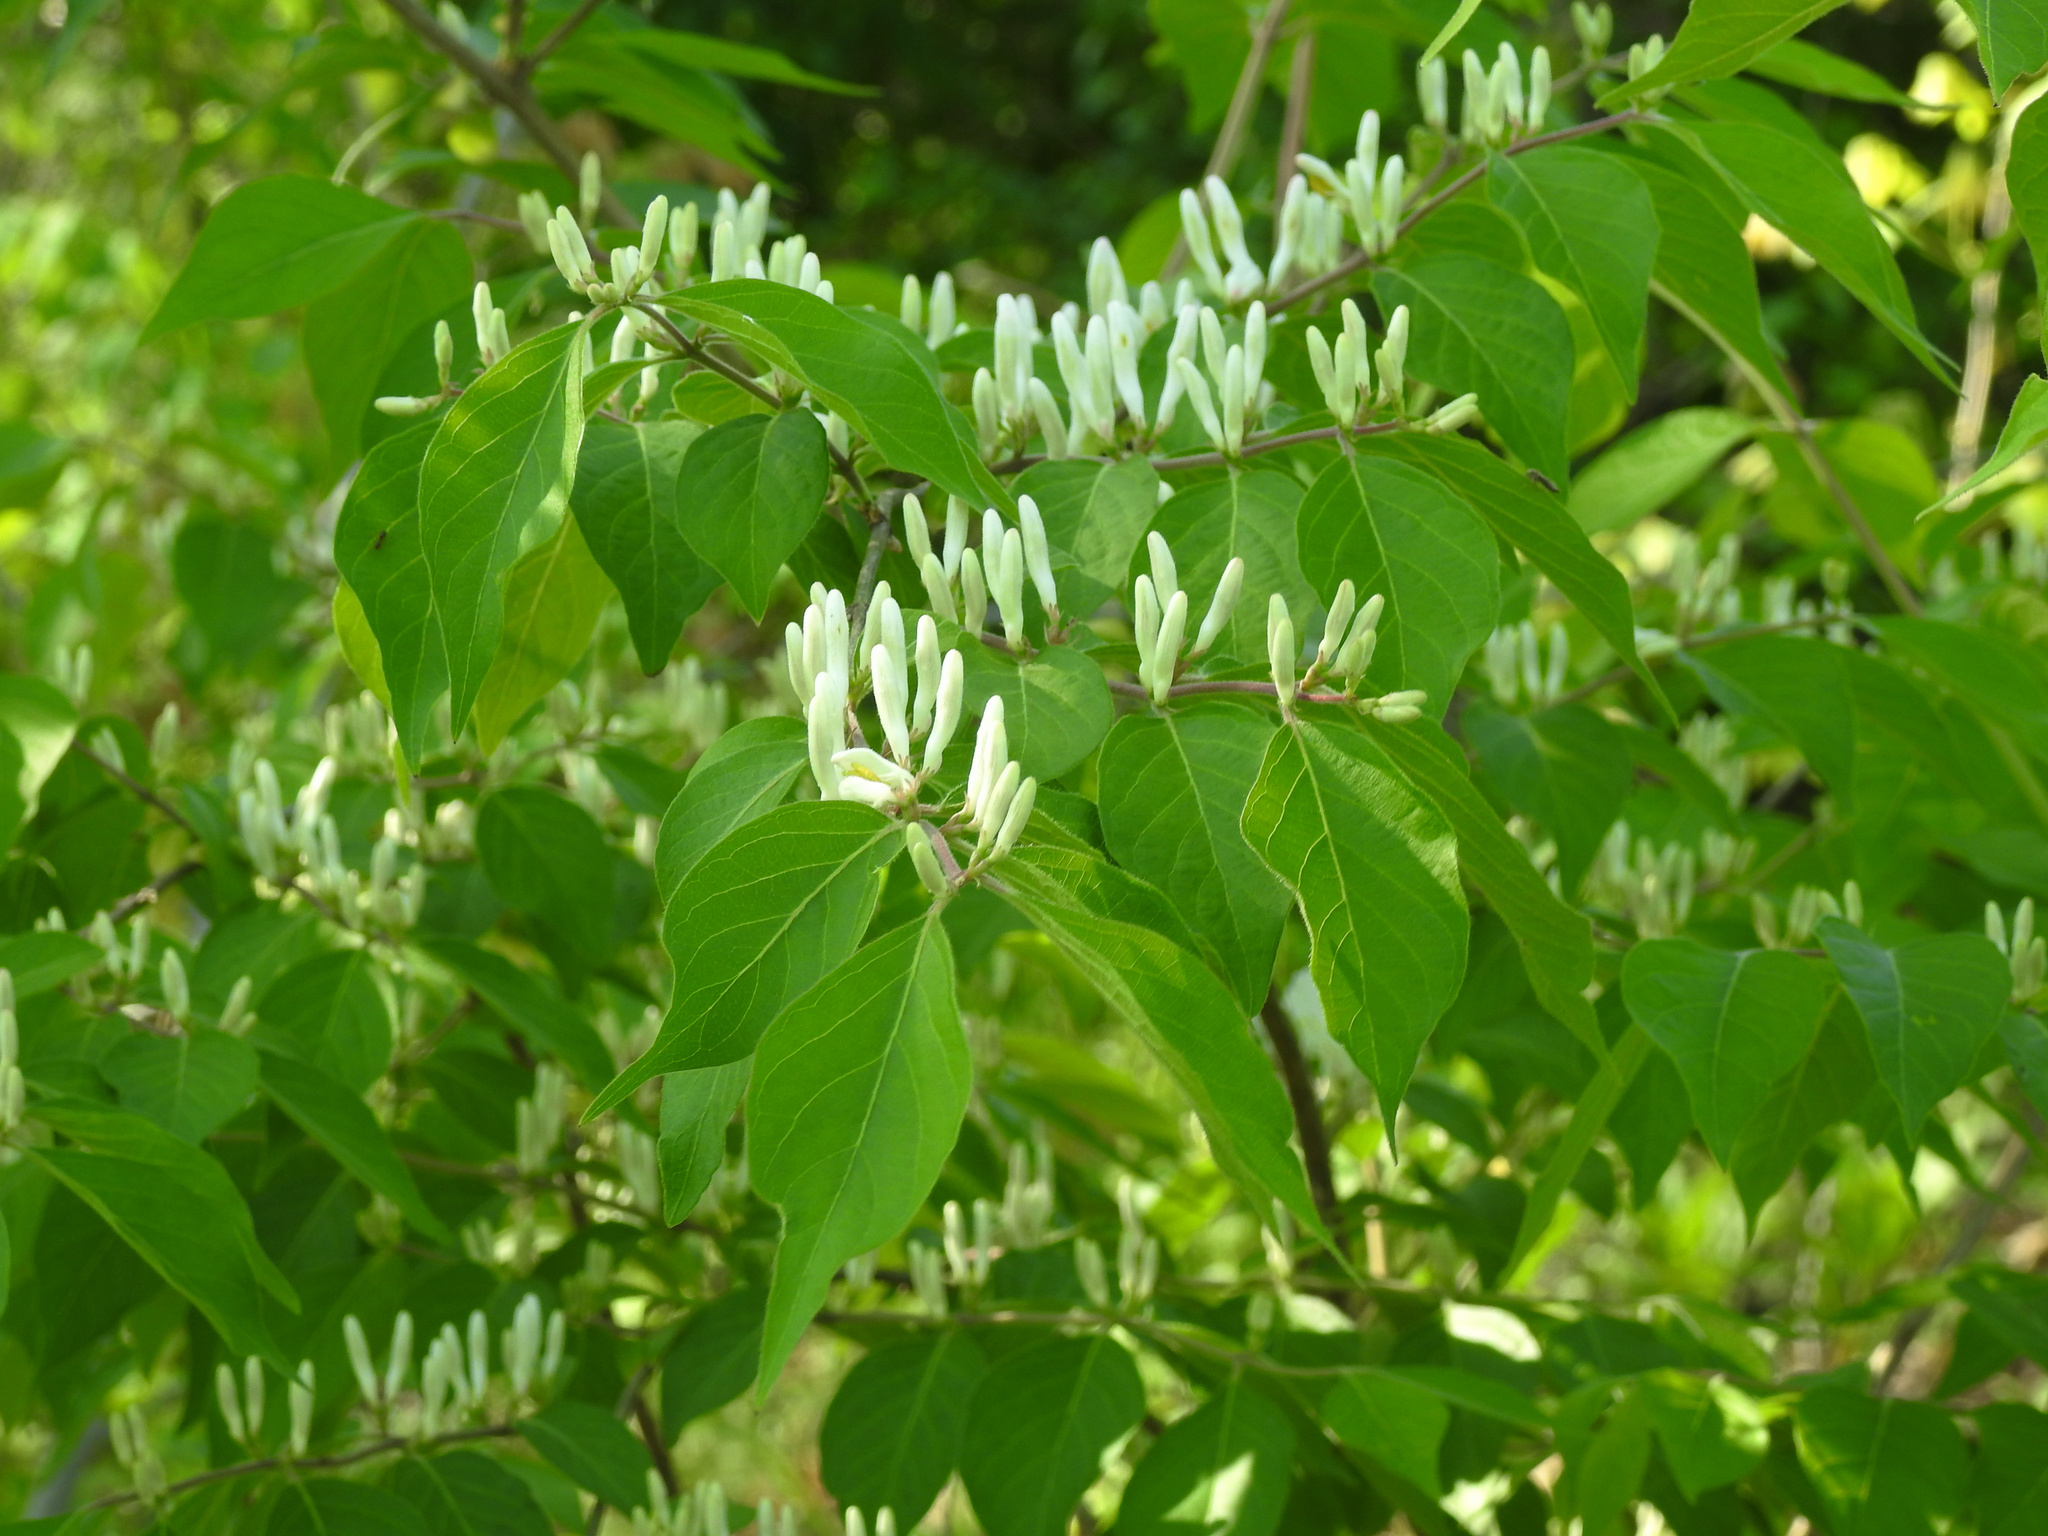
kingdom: Plantae
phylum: Tracheophyta
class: Magnoliopsida
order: Dipsacales
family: Caprifoliaceae
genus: Lonicera
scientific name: Lonicera maackii
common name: Amur honeysuckle
